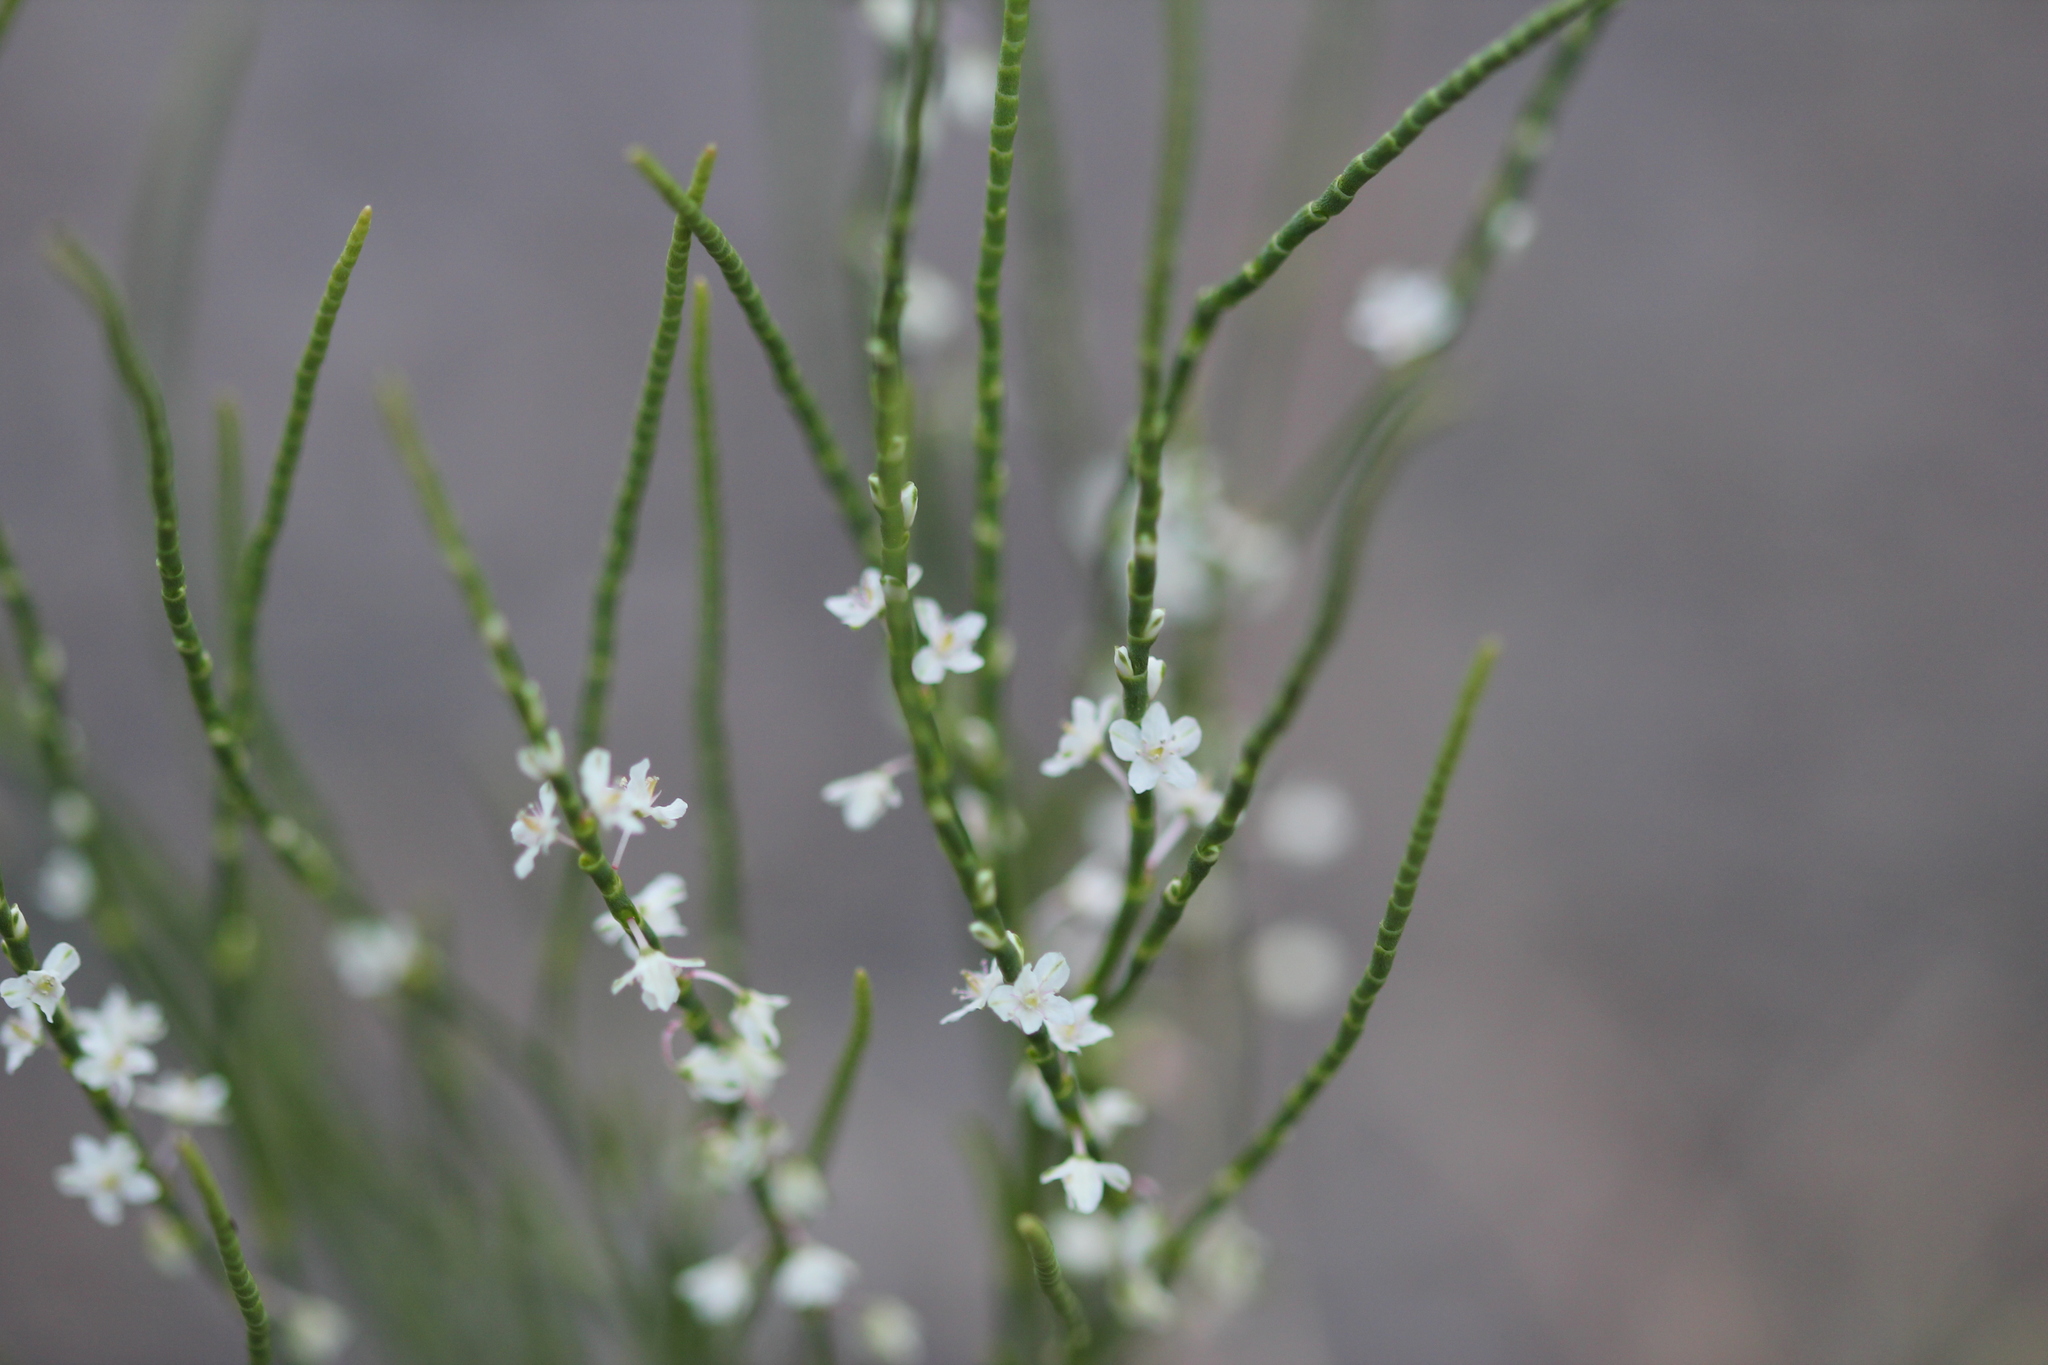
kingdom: Plantae
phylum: Tracheophyta
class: Magnoliopsida
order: Caryophyllales
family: Polygonaceae
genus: Polygonella
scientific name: Polygonella articulata
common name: Coastal jointweed
